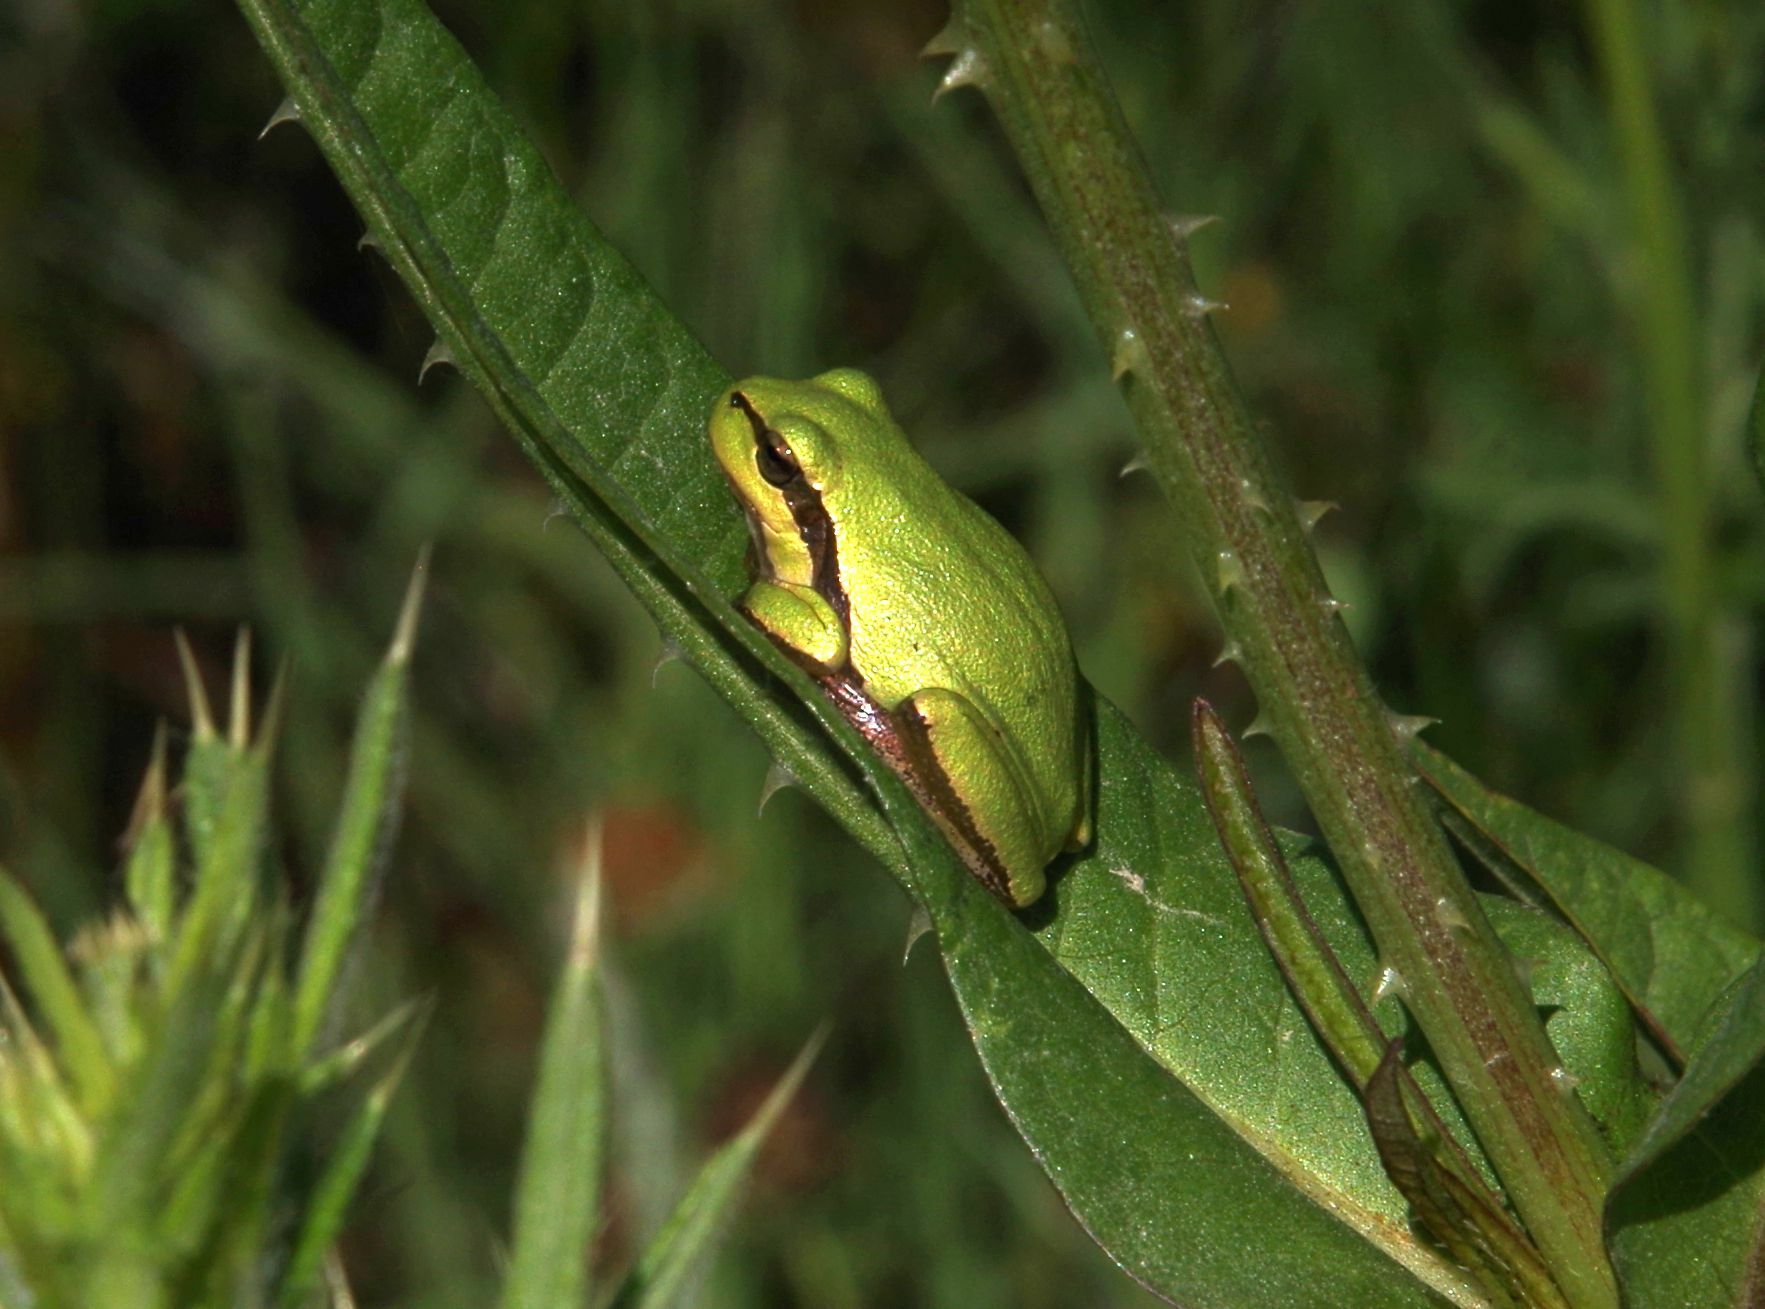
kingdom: Animalia
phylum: Chordata
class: Amphibia
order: Anura
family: Hylidae
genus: Hyla
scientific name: Hyla orientalis
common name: Caucasian treefrog
